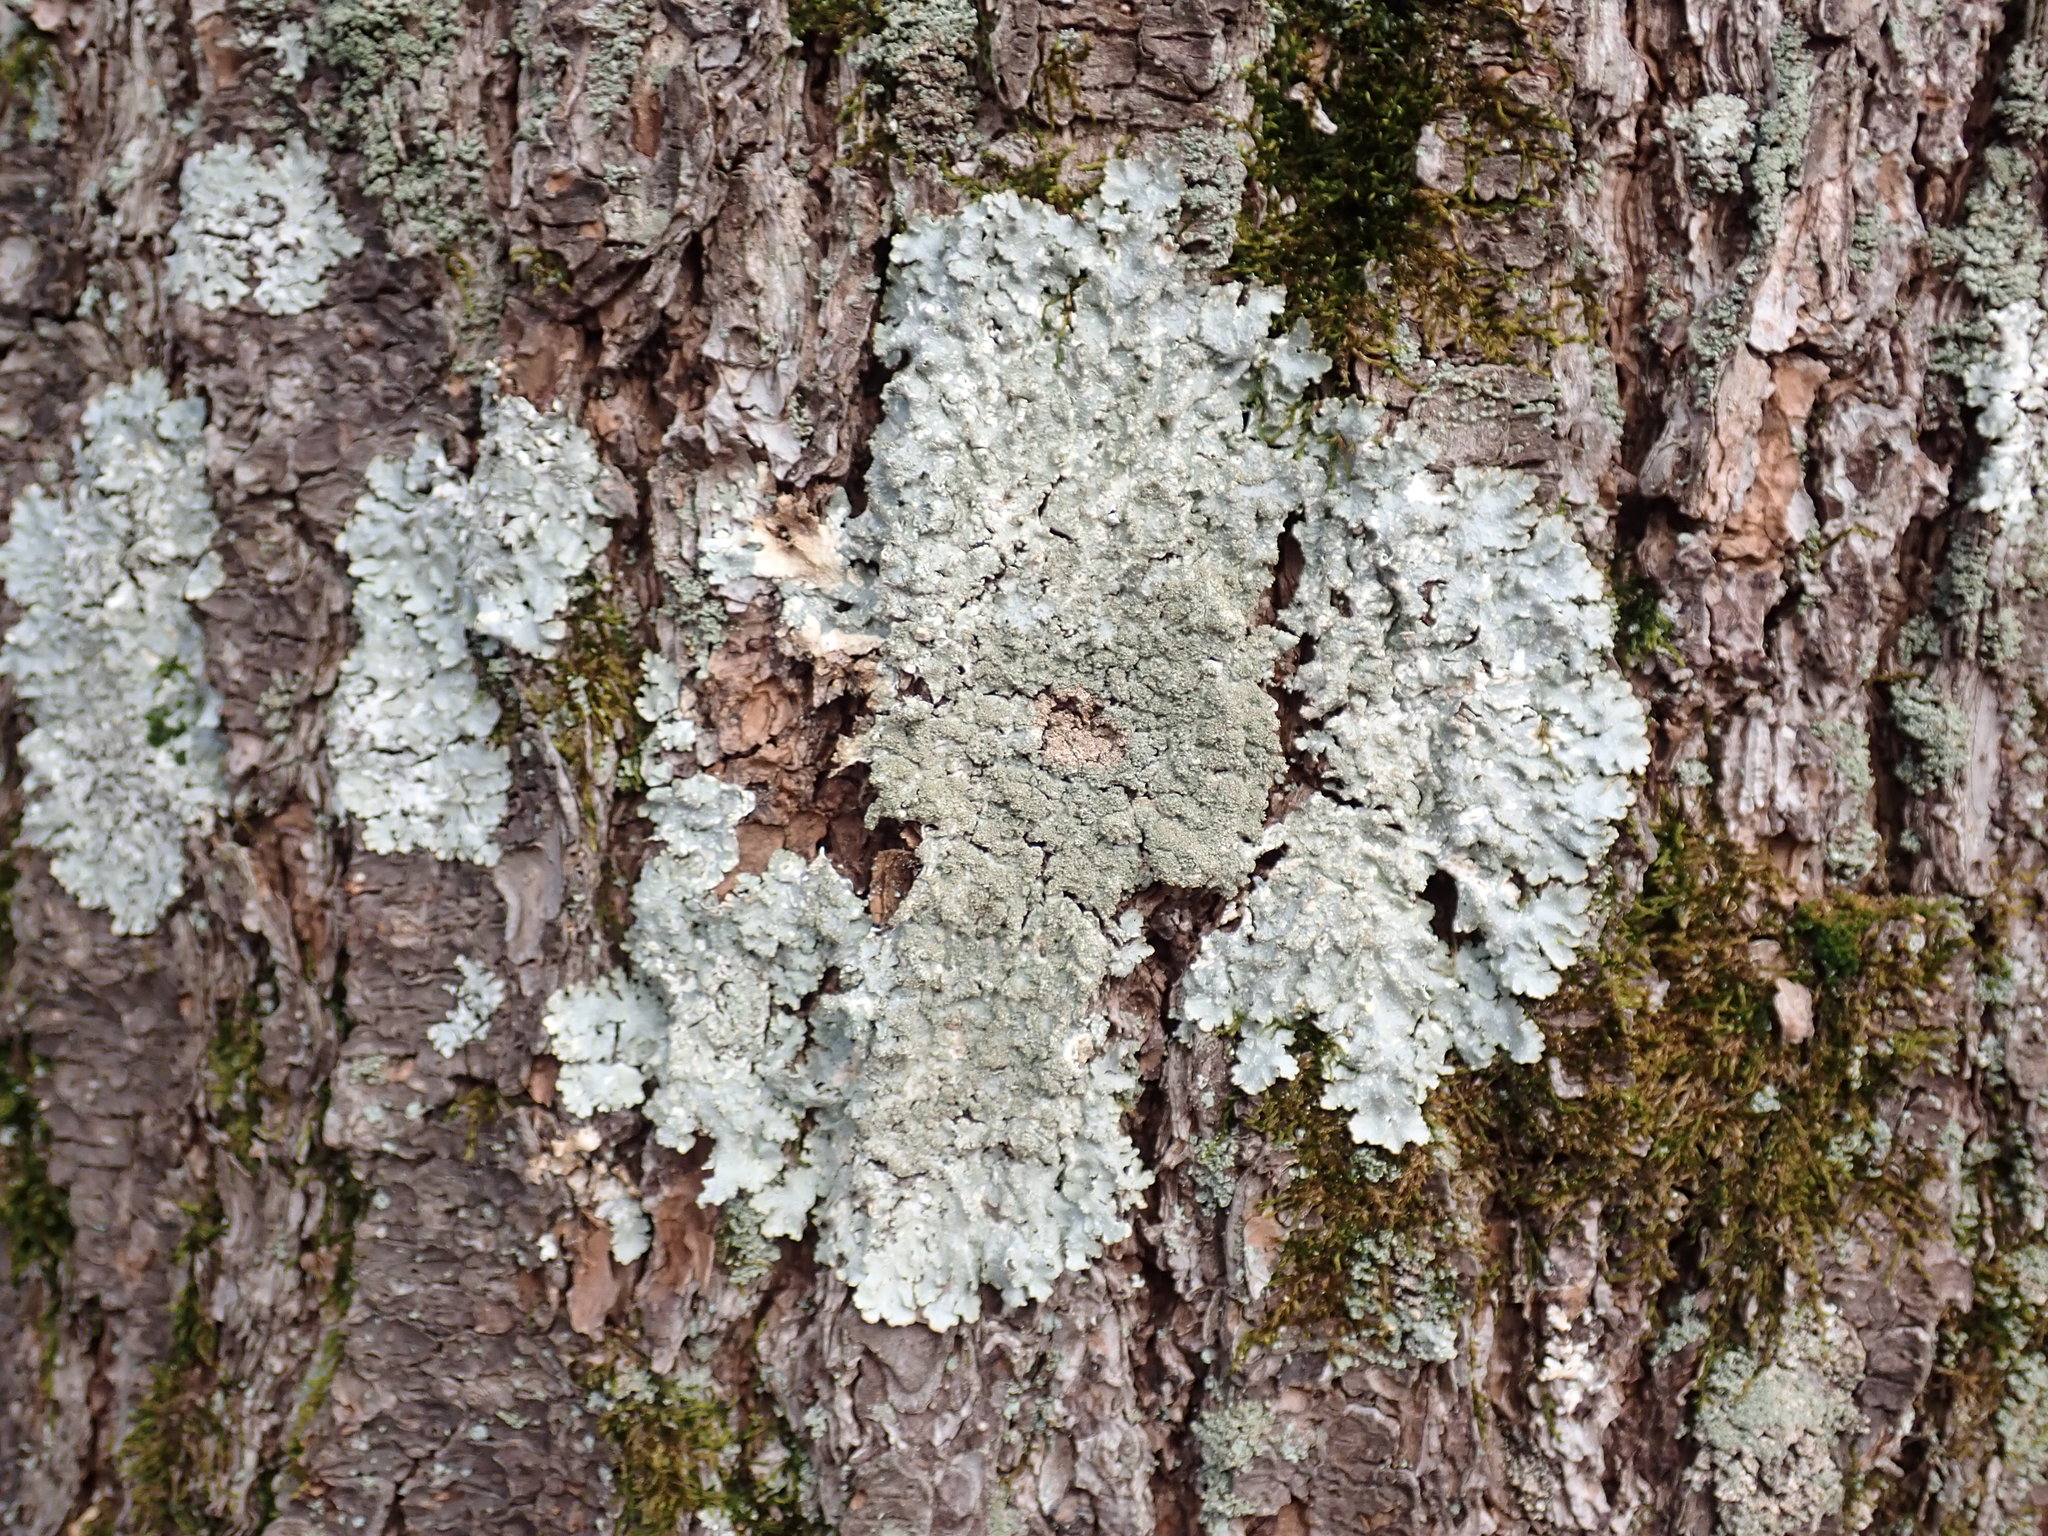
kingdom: Fungi
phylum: Ascomycota
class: Lecanoromycetes
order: Lecanorales
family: Parmeliaceae
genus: Punctelia
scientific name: Punctelia rudecta
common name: Rough speckled shield lichen
